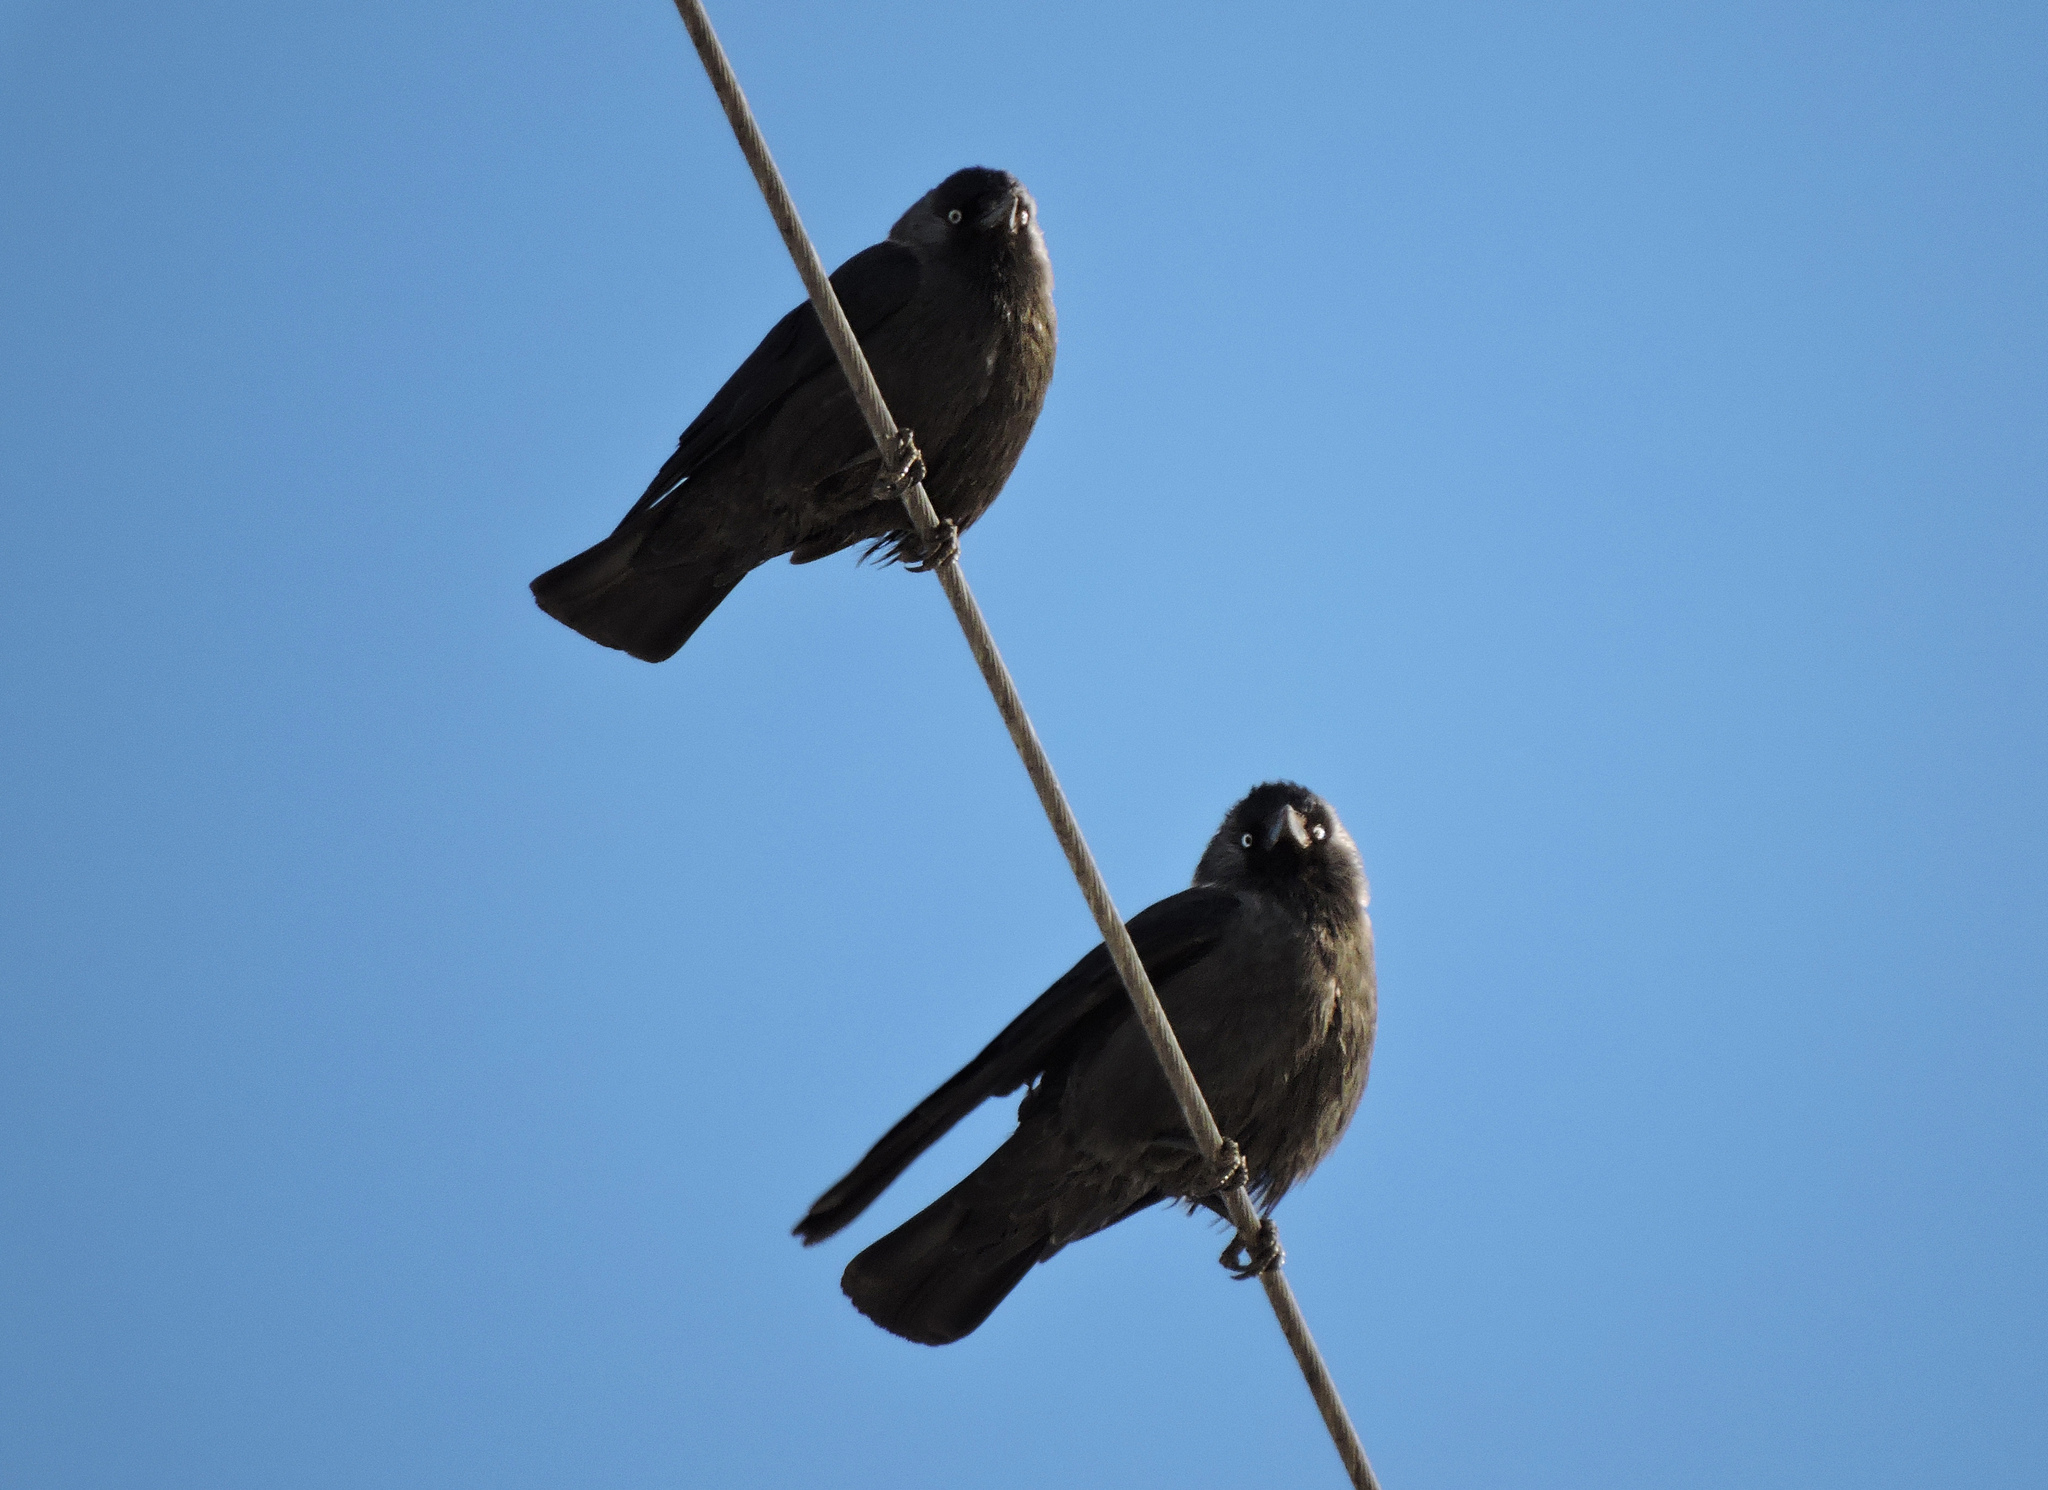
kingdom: Animalia
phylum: Chordata
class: Aves
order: Passeriformes
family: Corvidae
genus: Coloeus
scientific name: Coloeus monedula
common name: Western jackdaw
